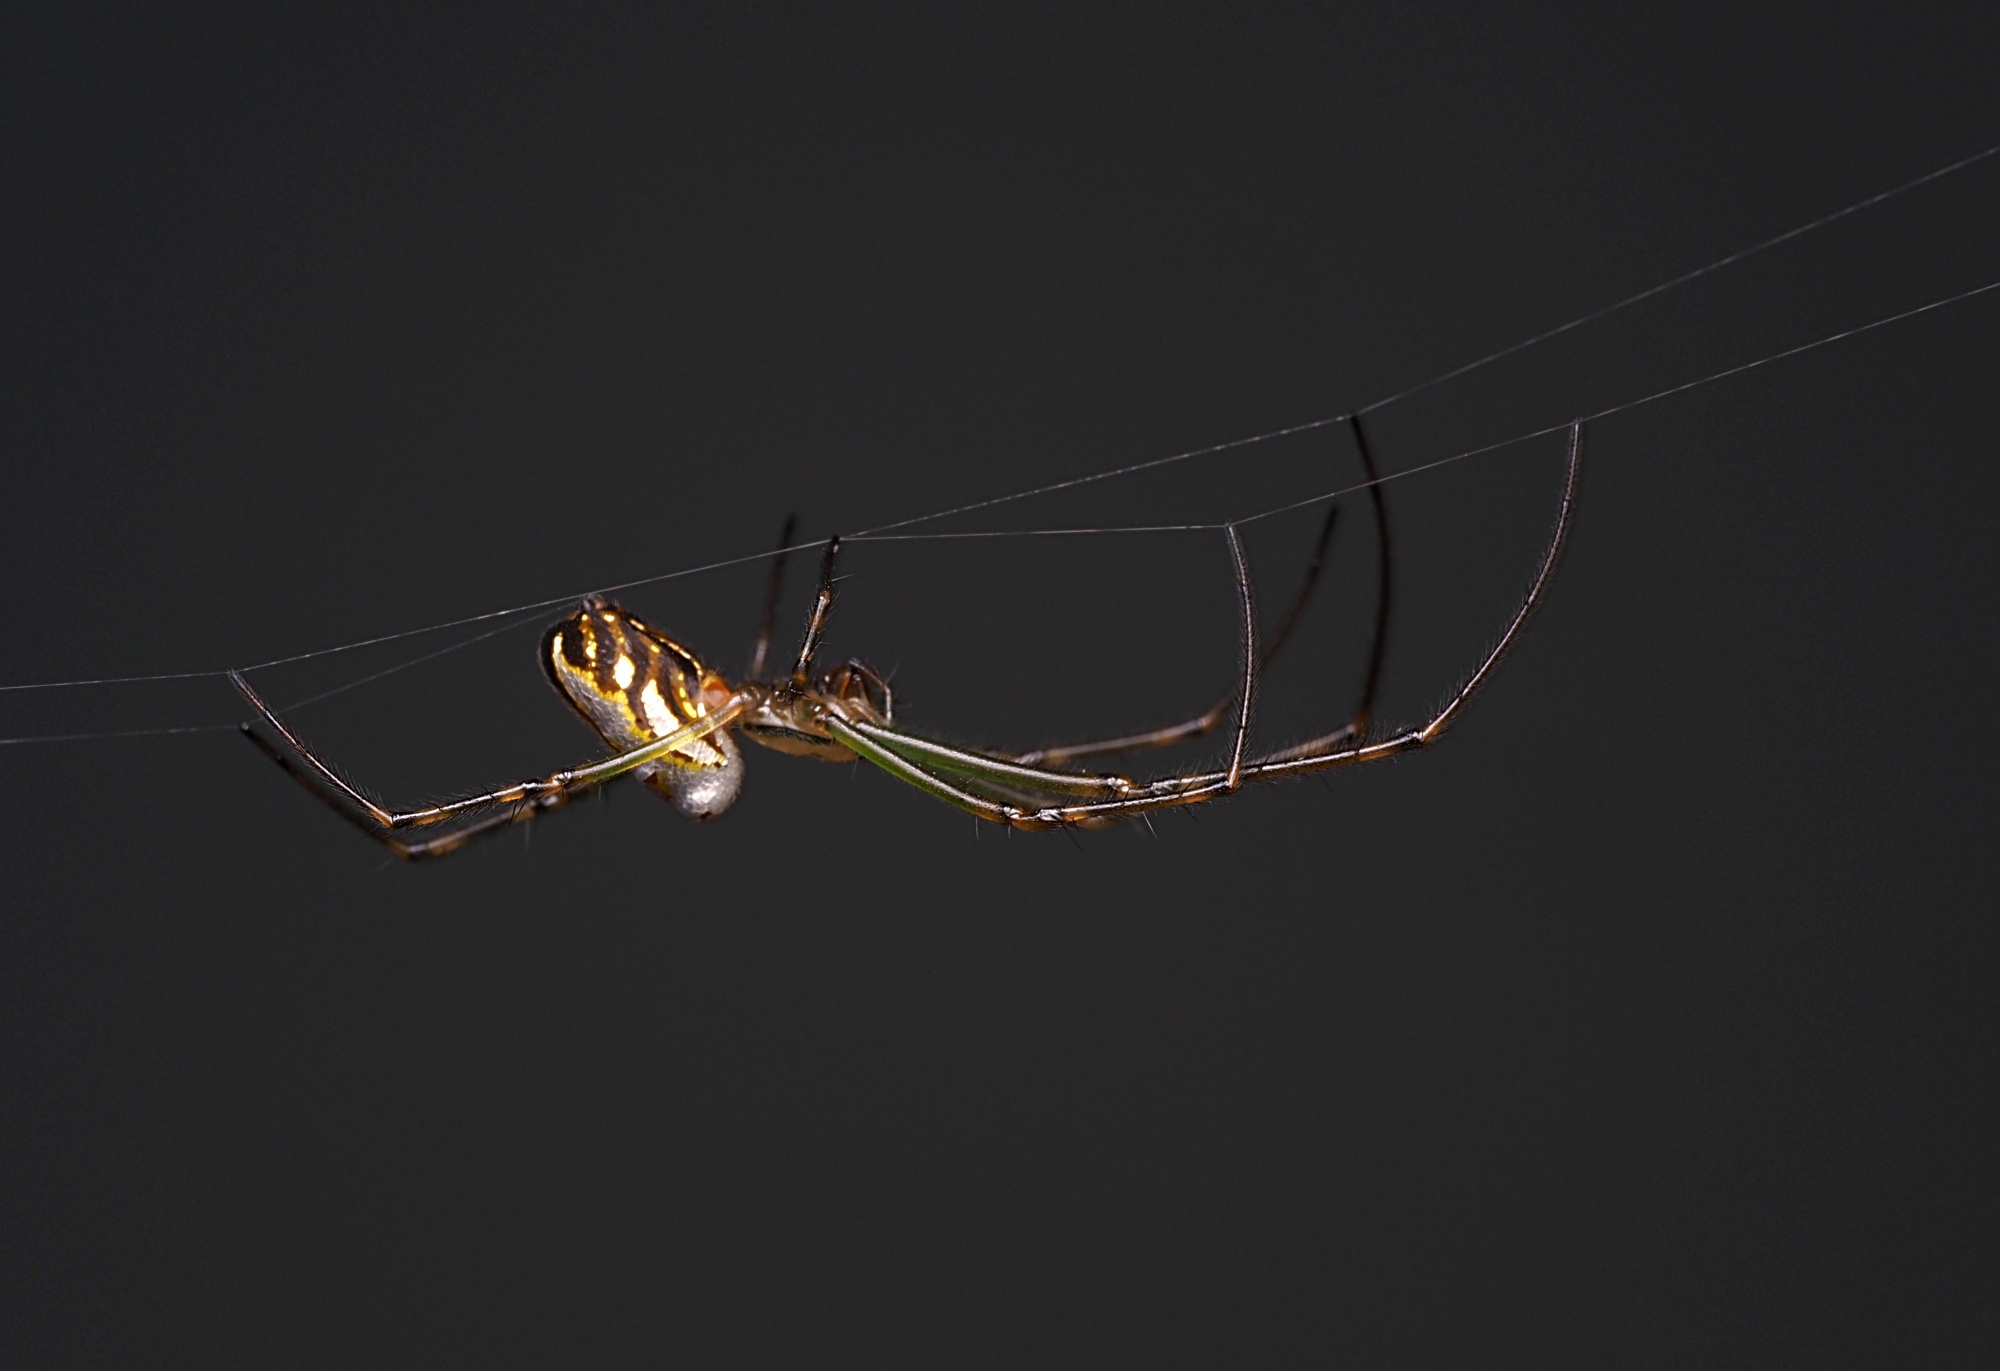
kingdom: Animalia
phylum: Arthropoda
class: Arachnida
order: Araneae
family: Tetragnathidae
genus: Leucauge
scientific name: Leucauge dromedaria
